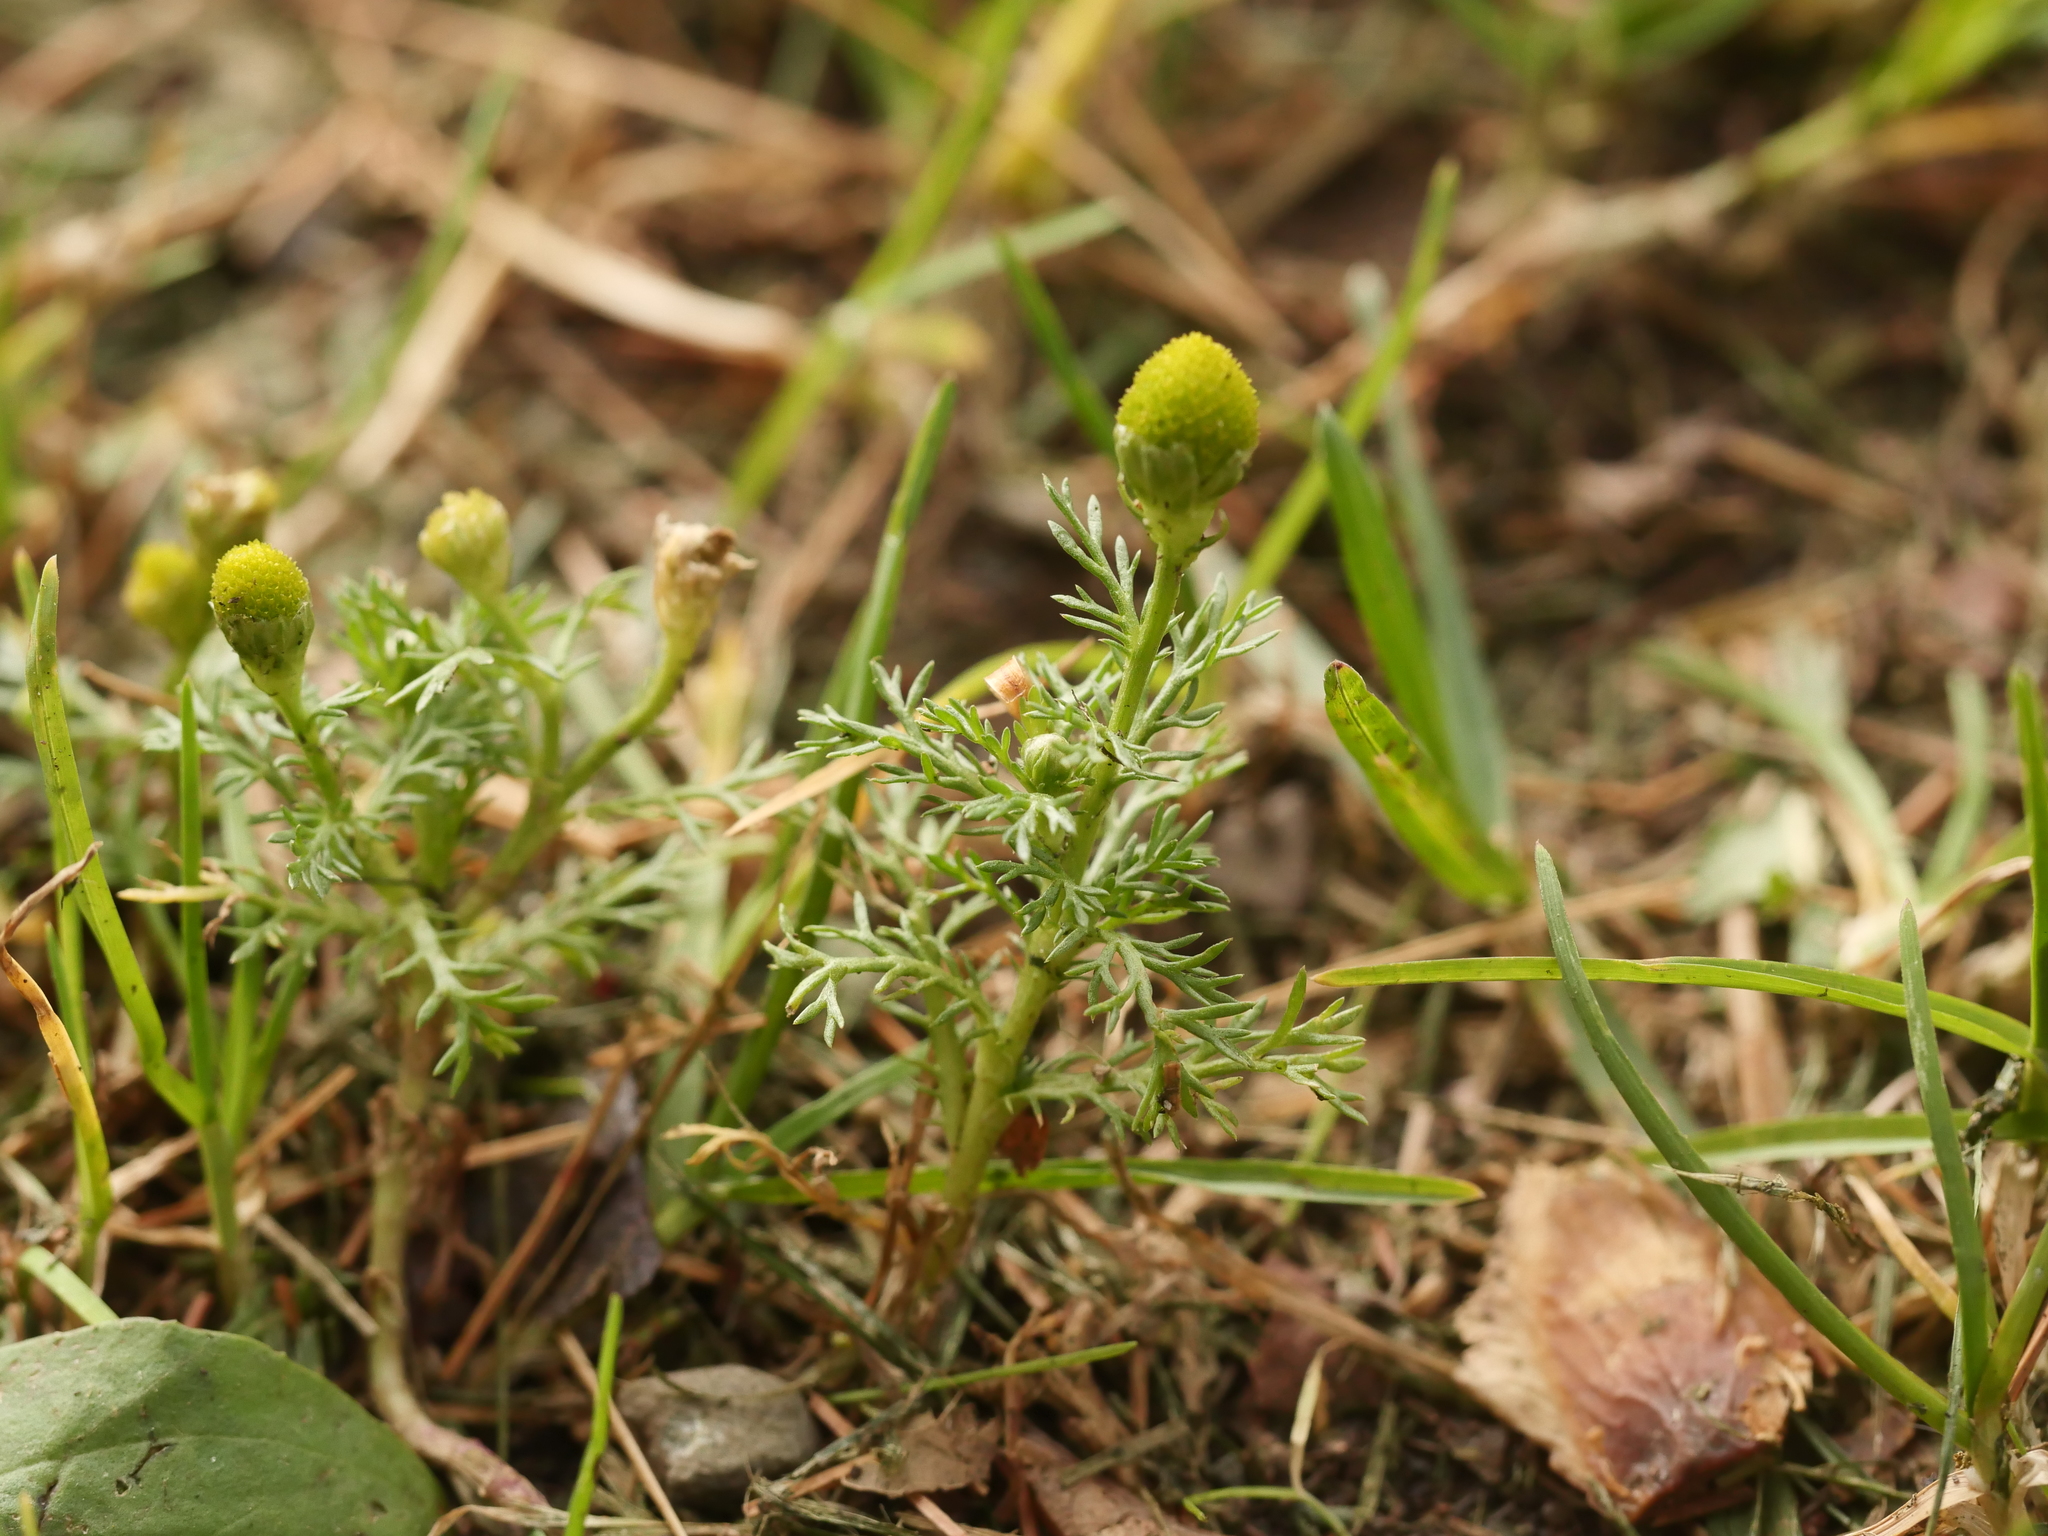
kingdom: Plantae
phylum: Tracheophyta
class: Magnoliopsida
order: Asterales
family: Asteraceae
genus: Matricaria
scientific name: Matricaria discoidea
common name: Disc mayweed
